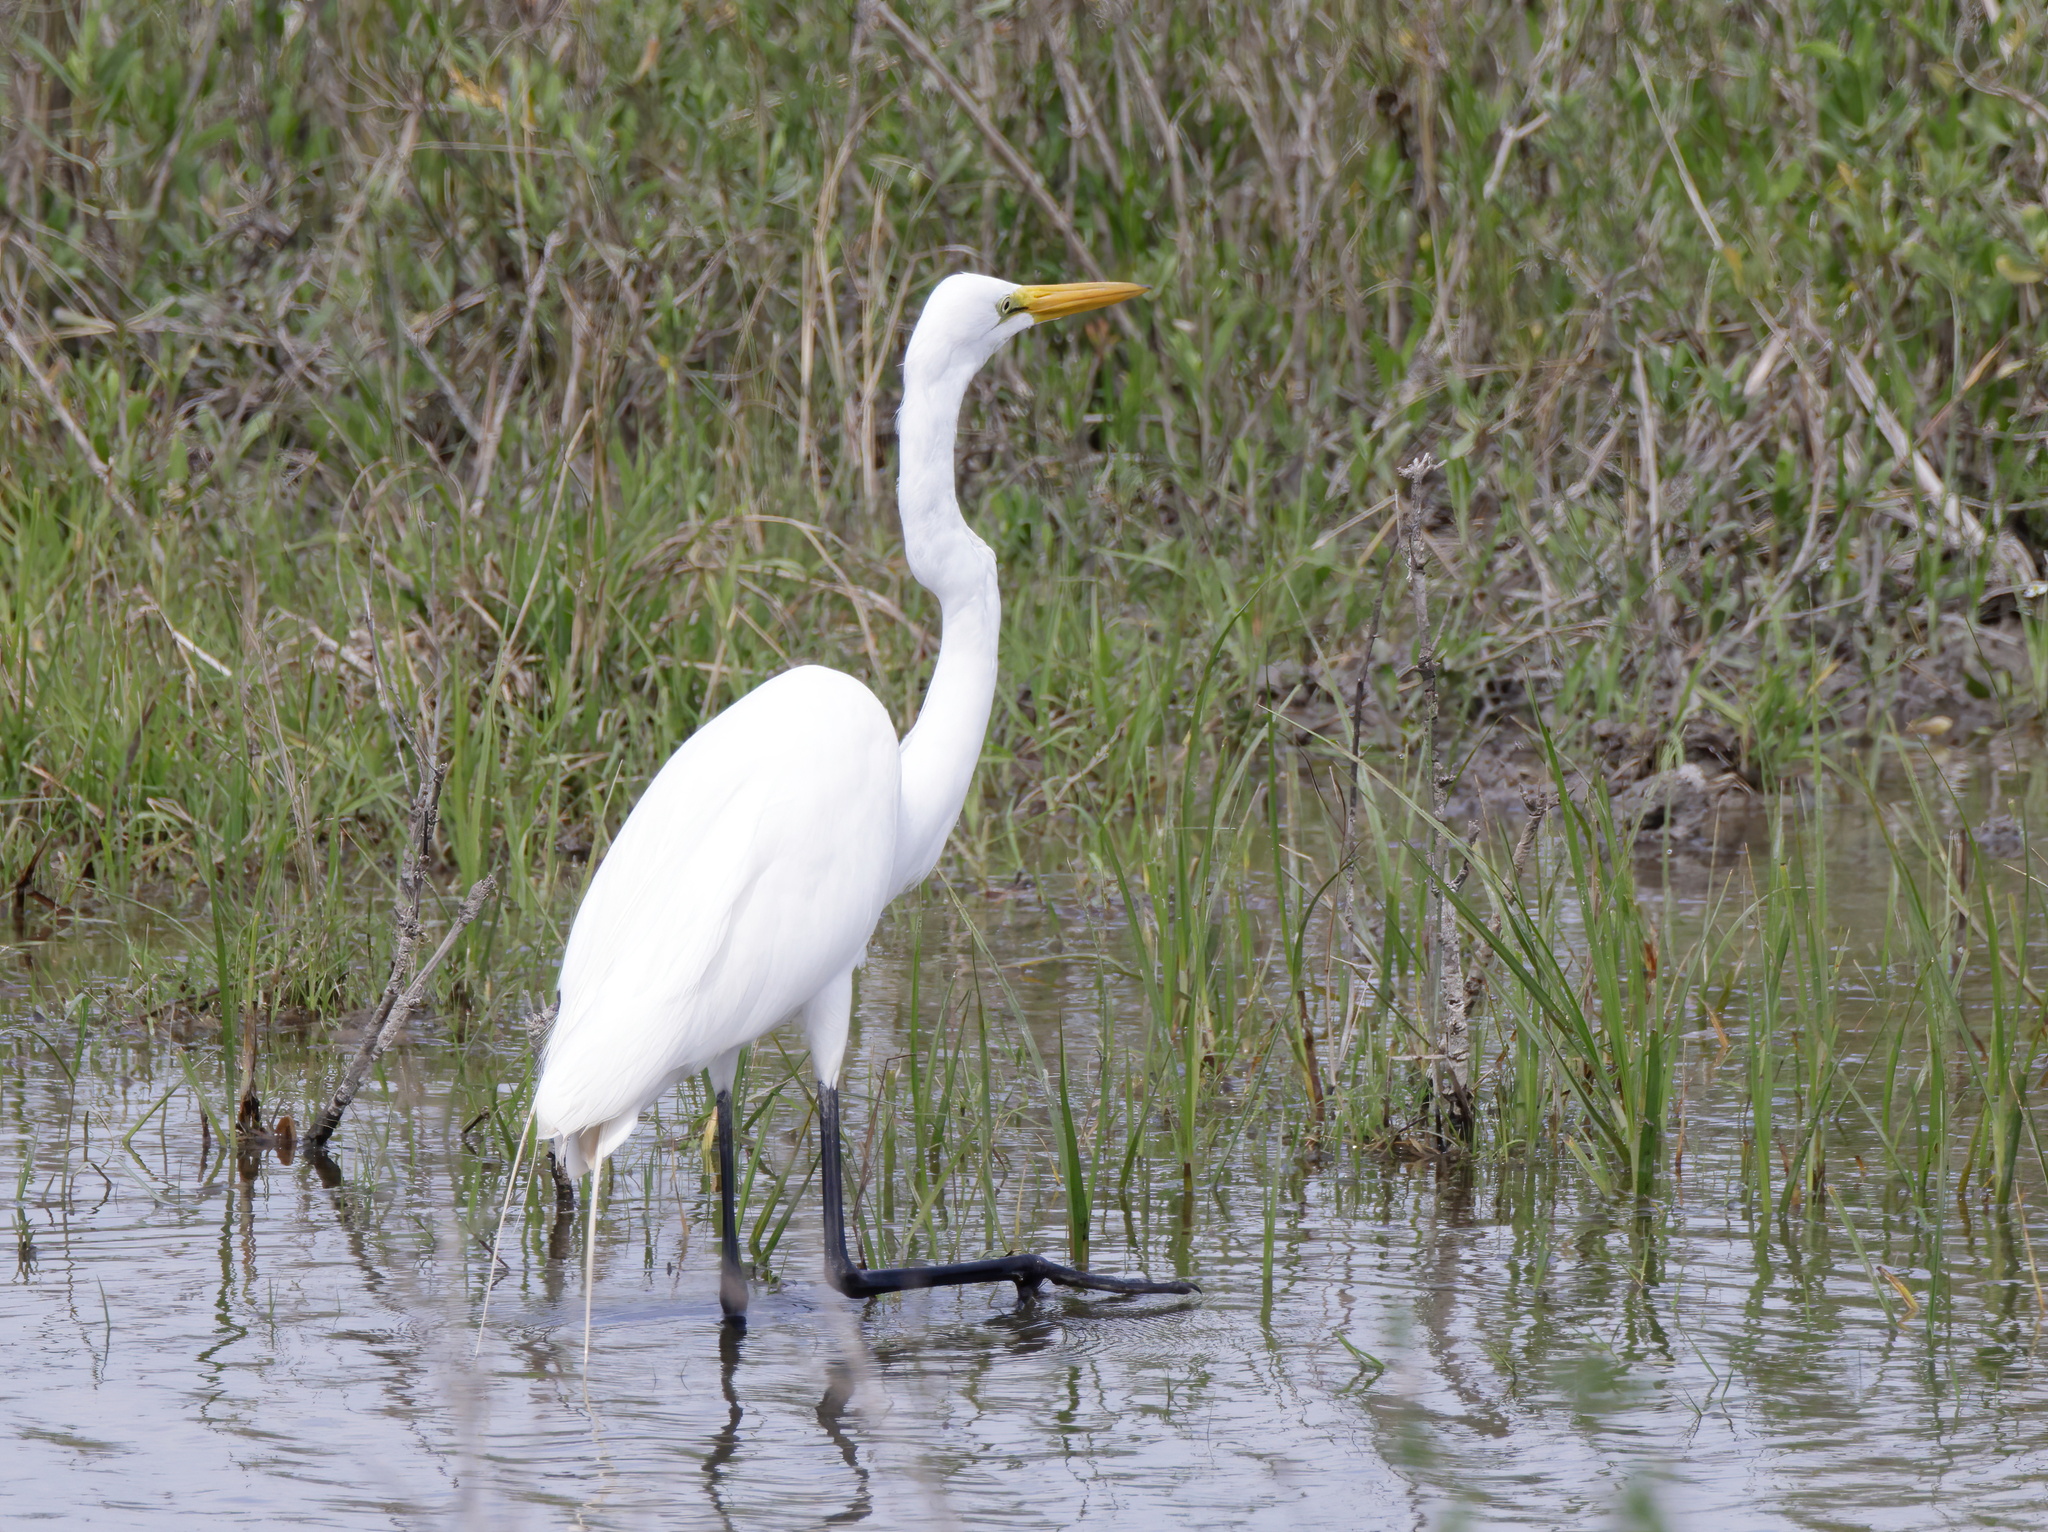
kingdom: Animalia
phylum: Chordata
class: Aves
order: Pelecaniformes
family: Ardeidae
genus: Ardea
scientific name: Ardea alba
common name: Great egret
